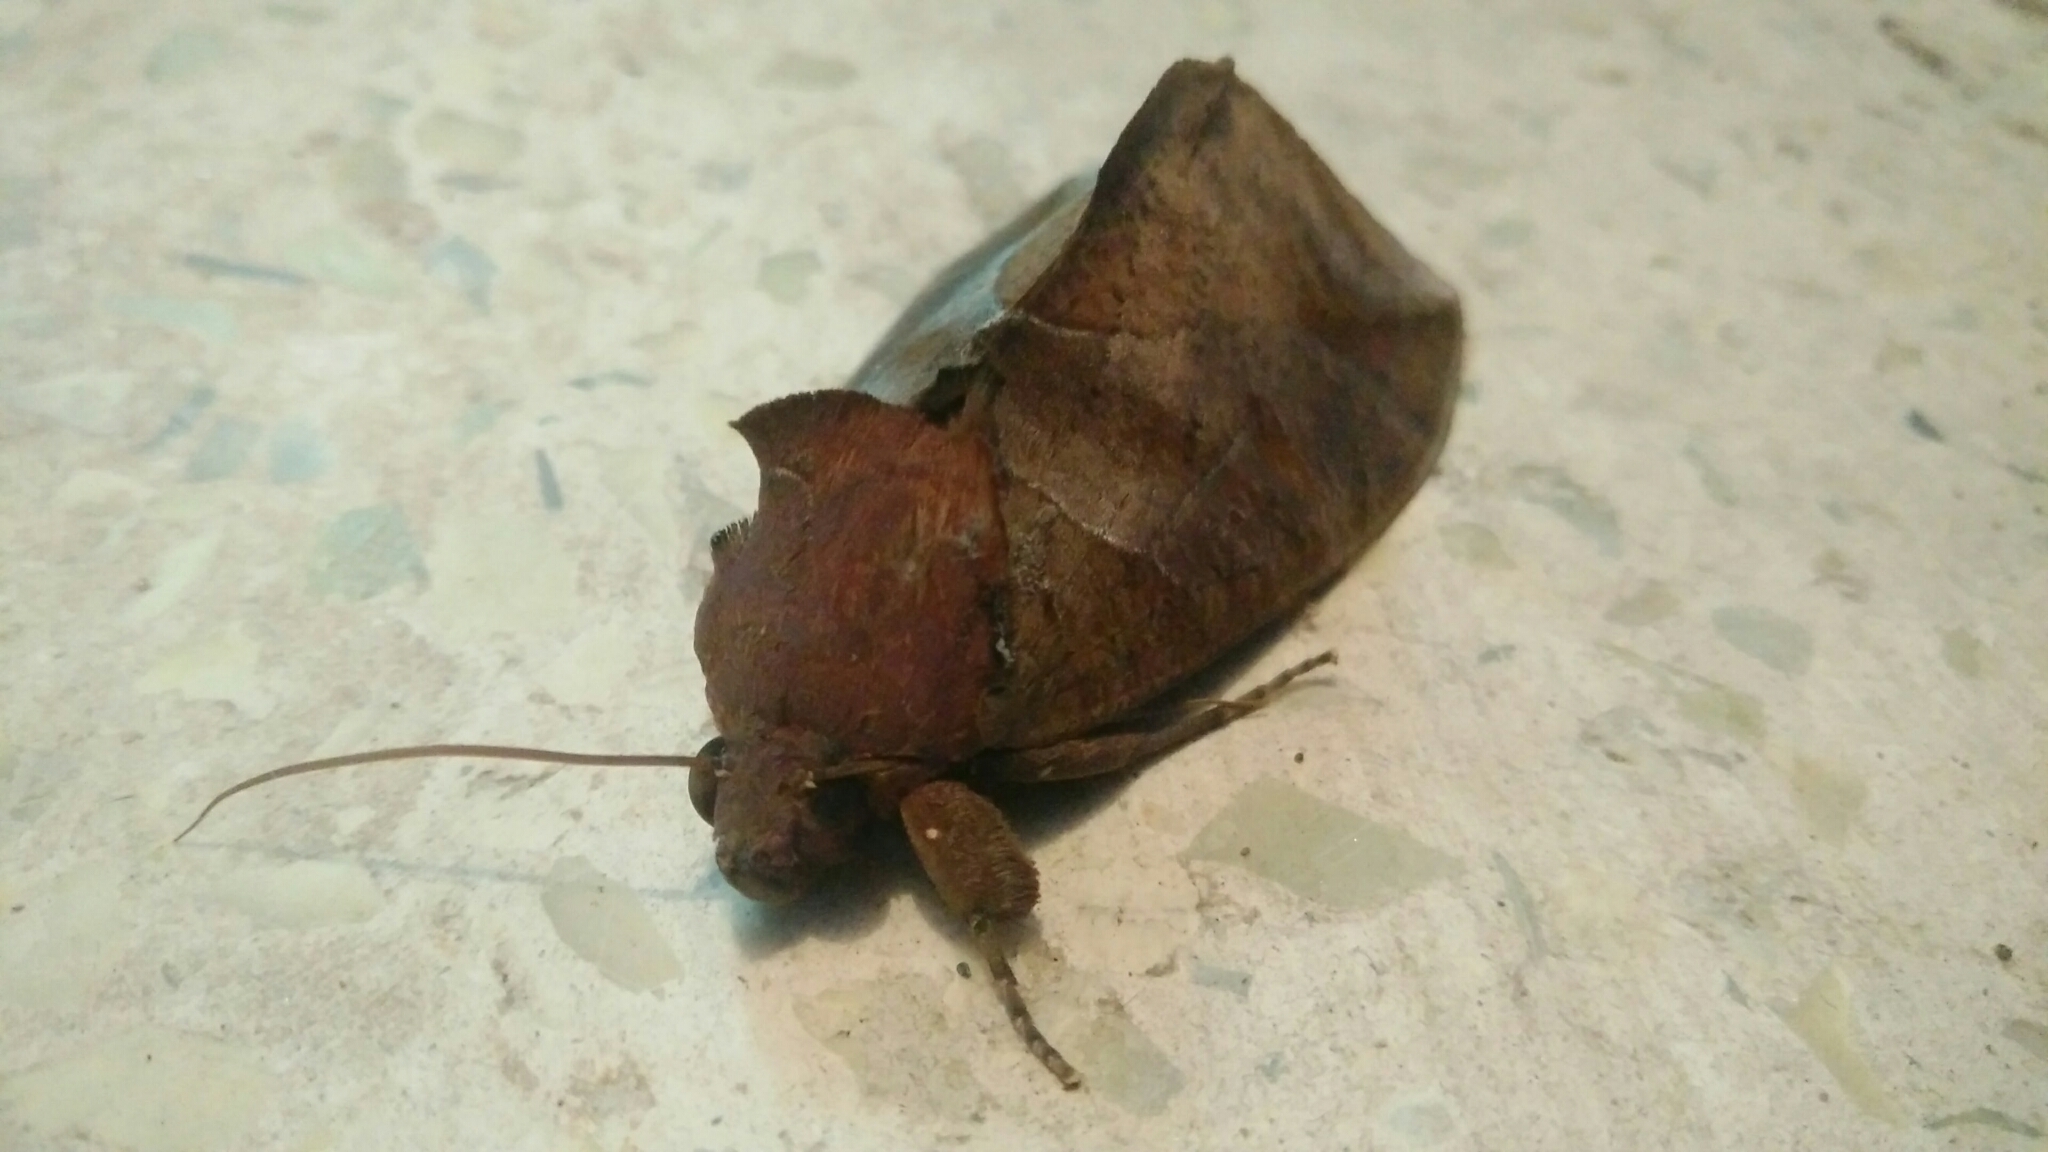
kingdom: Animalia
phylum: Arthropoda
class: Insecta
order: Lepidoptera
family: Erebidae
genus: Eudocima
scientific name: Eudocima phalonia
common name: Wasp
